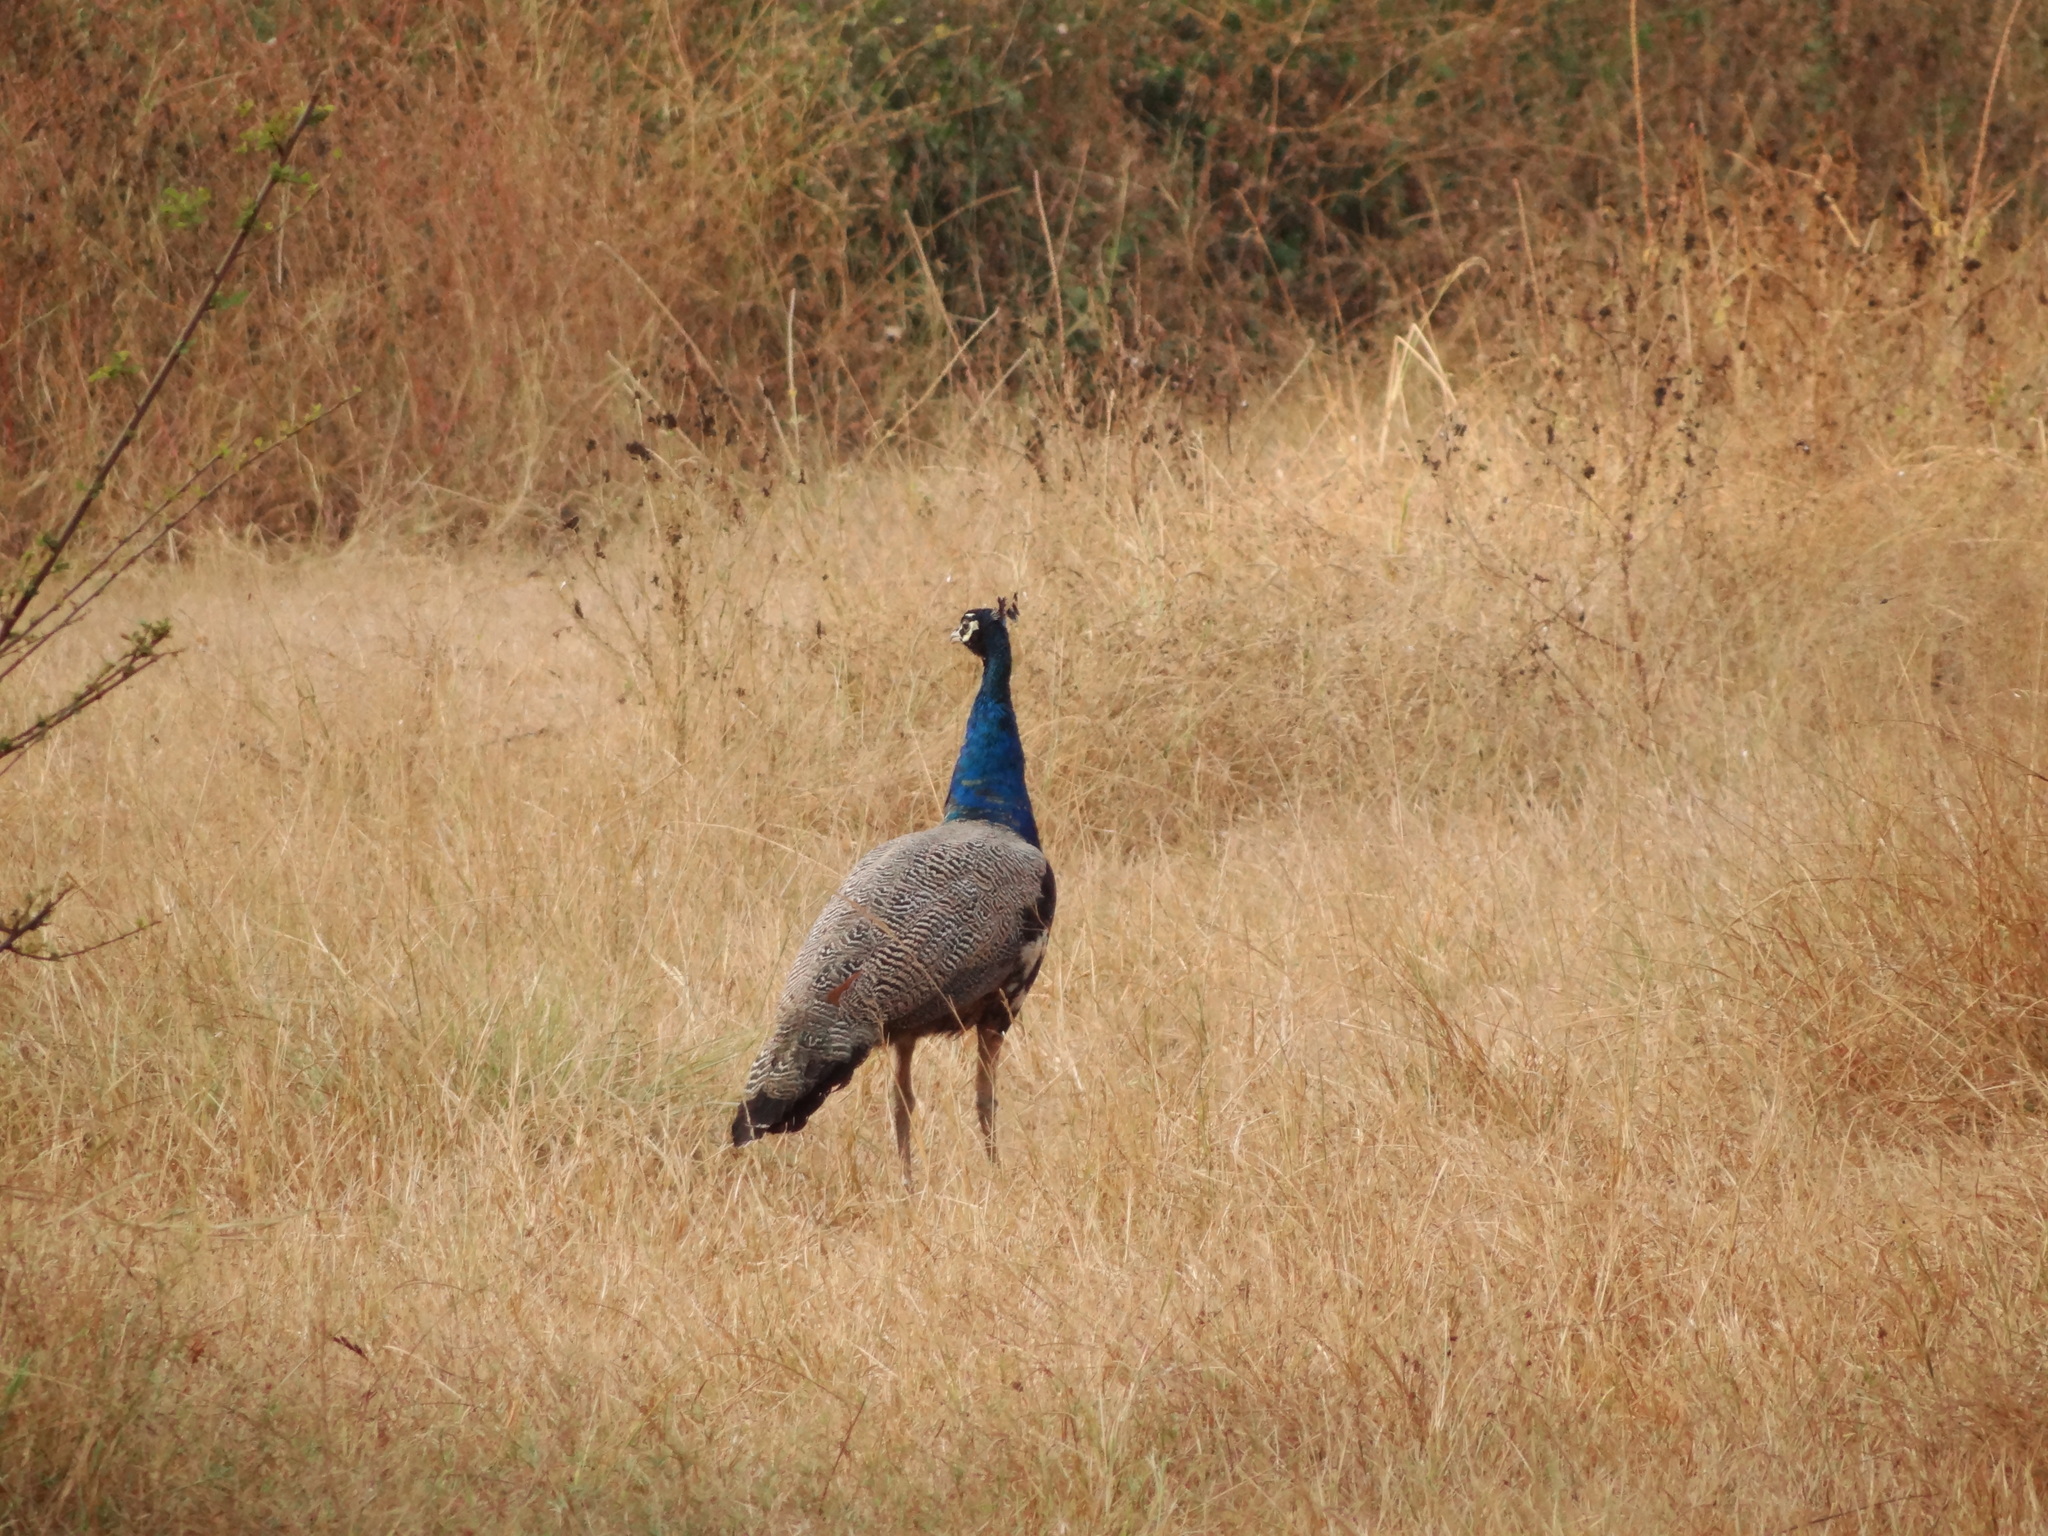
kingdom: Animalia
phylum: Chordata
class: Aves
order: Galliformes
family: Phasianidae
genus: Pavo
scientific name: Pavo cristatus
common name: Indian peafowl
